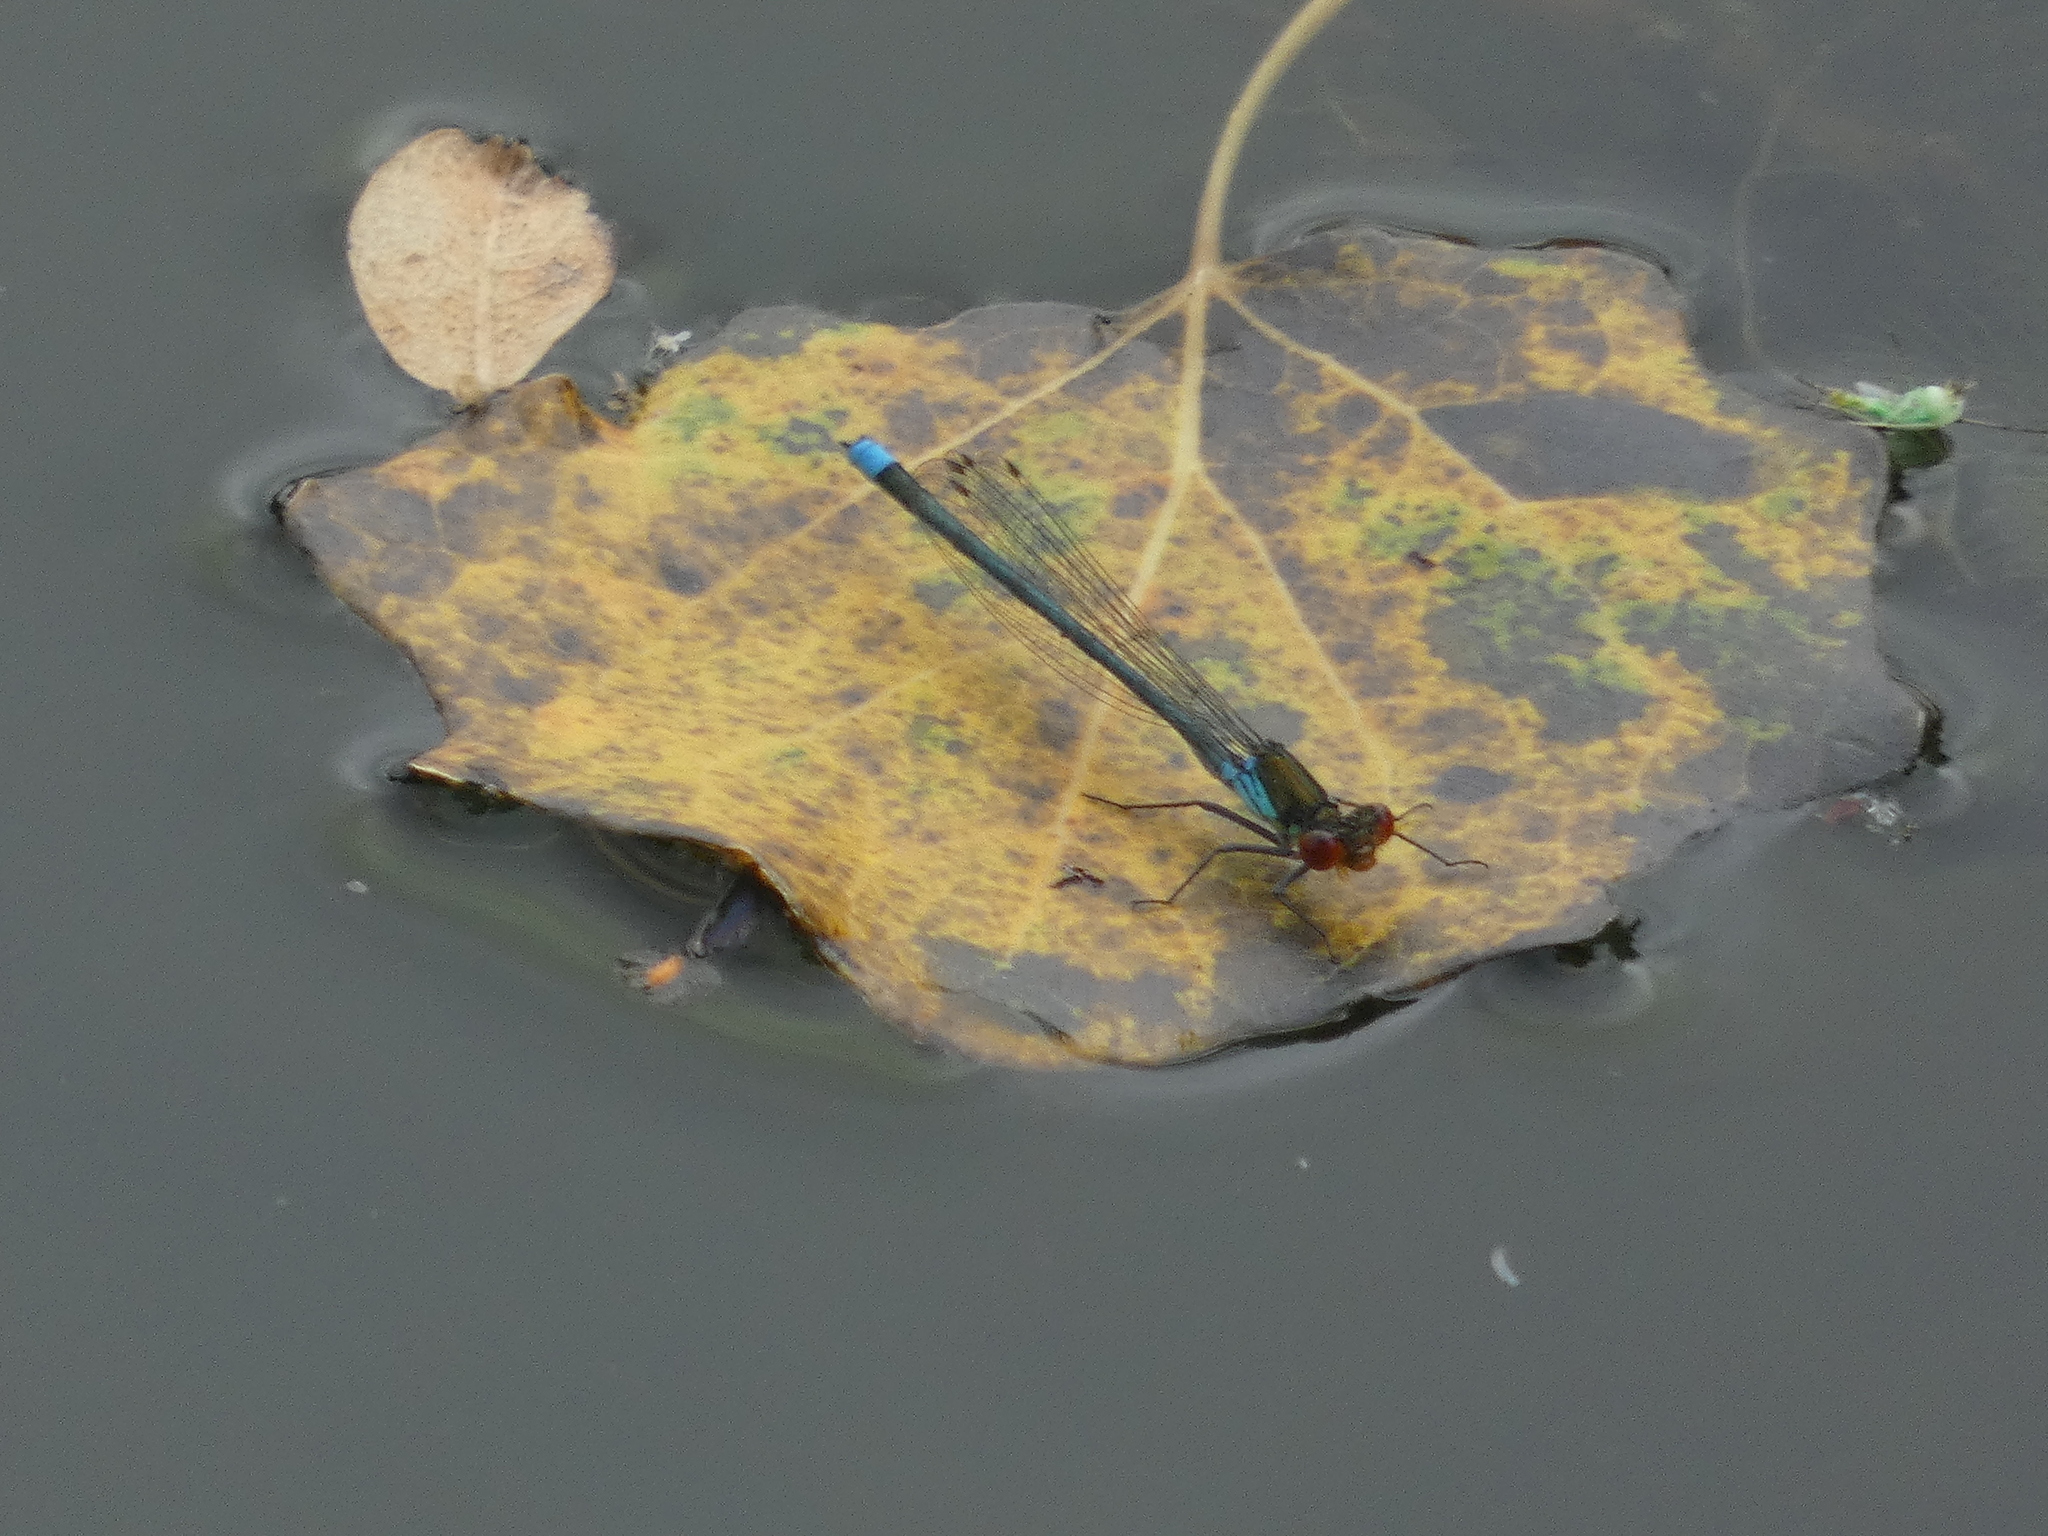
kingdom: Animalia
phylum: Arthropoda
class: Insecta
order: Odonata
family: Coenagrionidae
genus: Erythromma
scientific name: Erythromma najas
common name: Red-eyed damselfly
